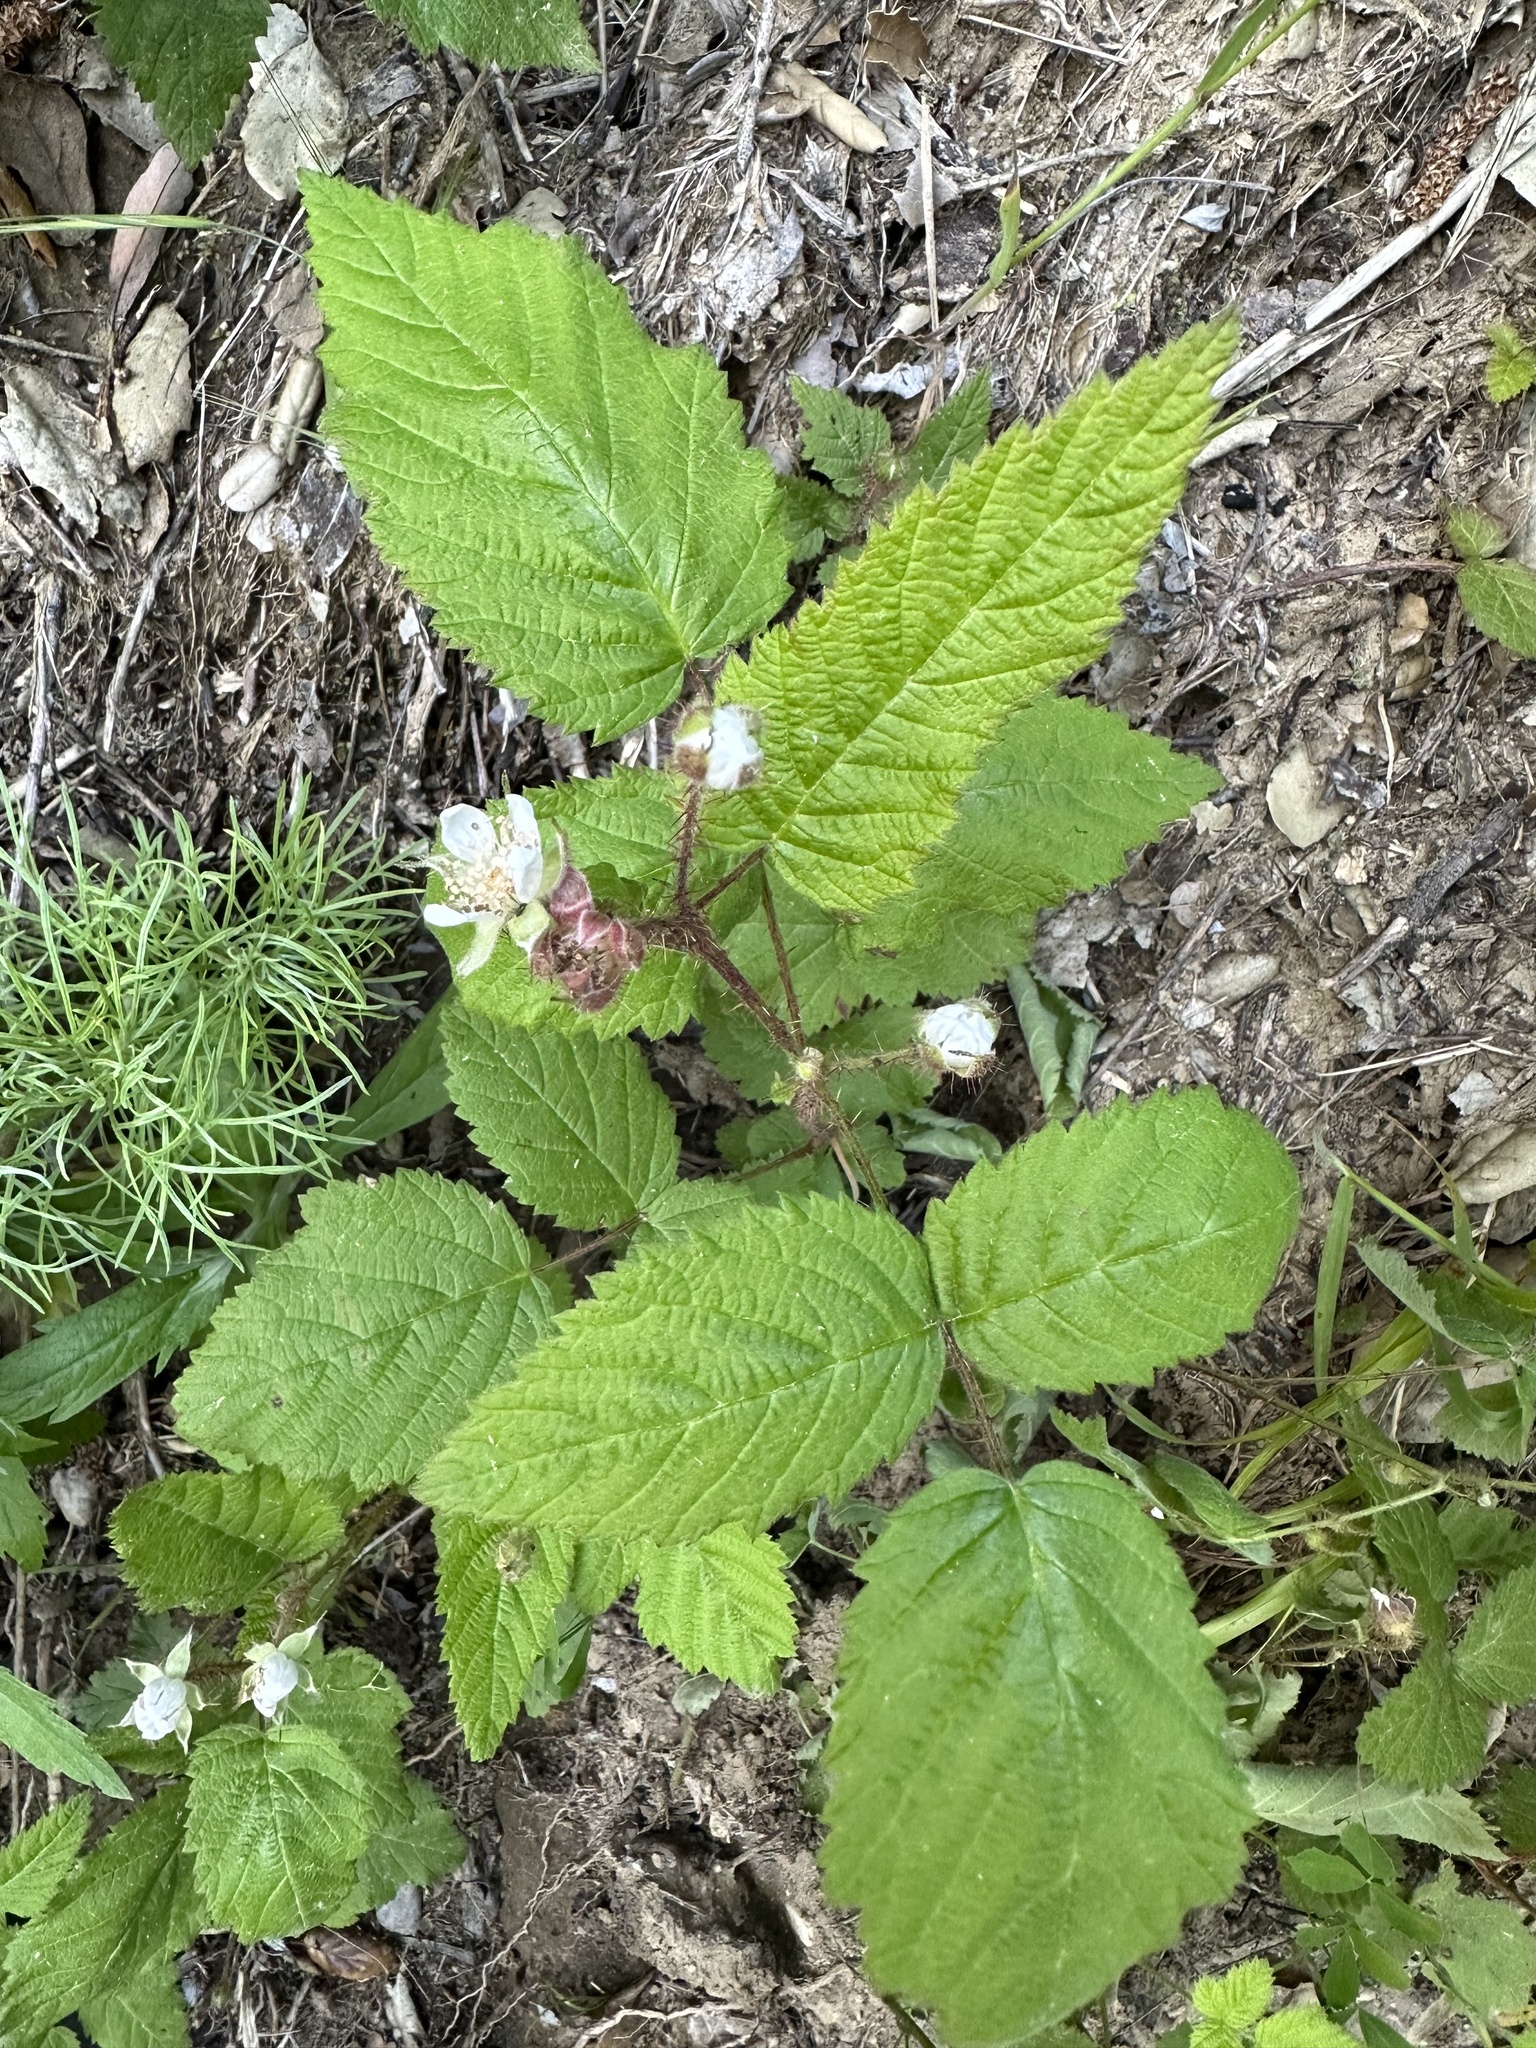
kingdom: Plantae
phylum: Tracheophyta
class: Magnoliopsida
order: Rosales
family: Rosaceae
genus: Rubus
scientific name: Rubus ursinus
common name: Pacific blackberry
